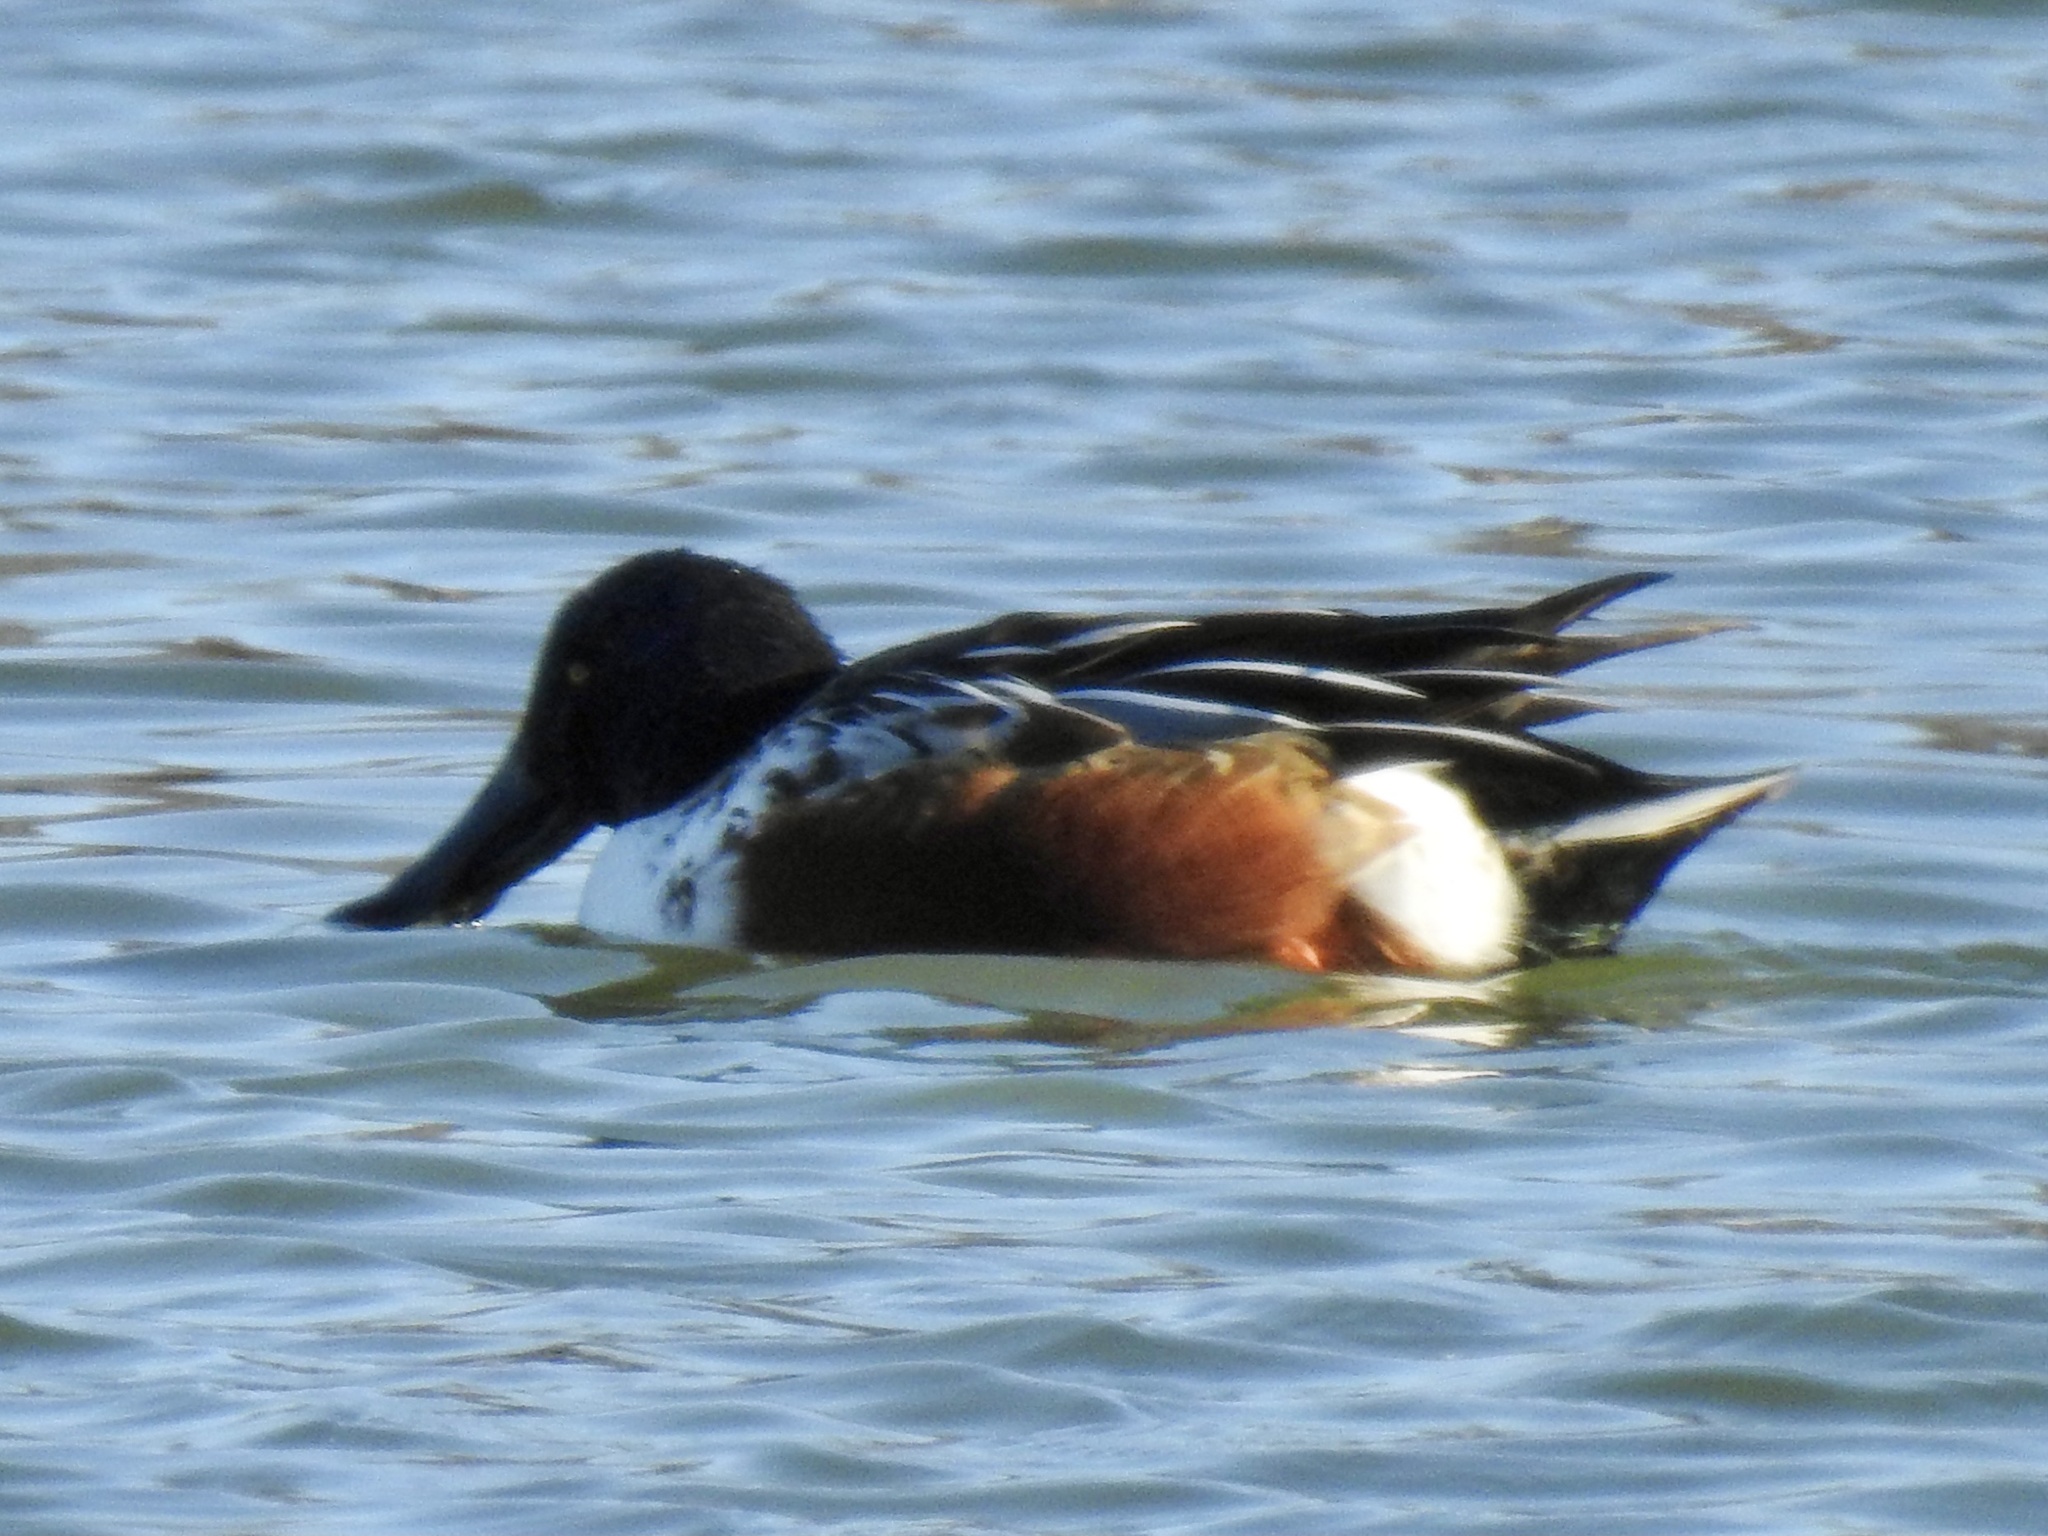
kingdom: Animalia
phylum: Chordata
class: Aves
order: Anseriformes
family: Anatidae
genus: Spatula
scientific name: Spatula clypeata
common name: Northern shoveler
